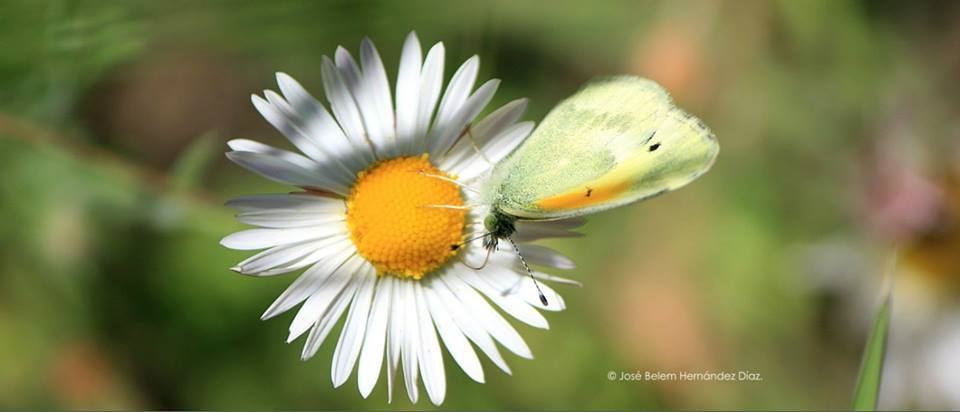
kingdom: Animalia
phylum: Arthropoda
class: Insecta
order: Lepidoptera
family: Pieridae
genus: Nathalis
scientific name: Nathalis iole
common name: Dainty sulphur
